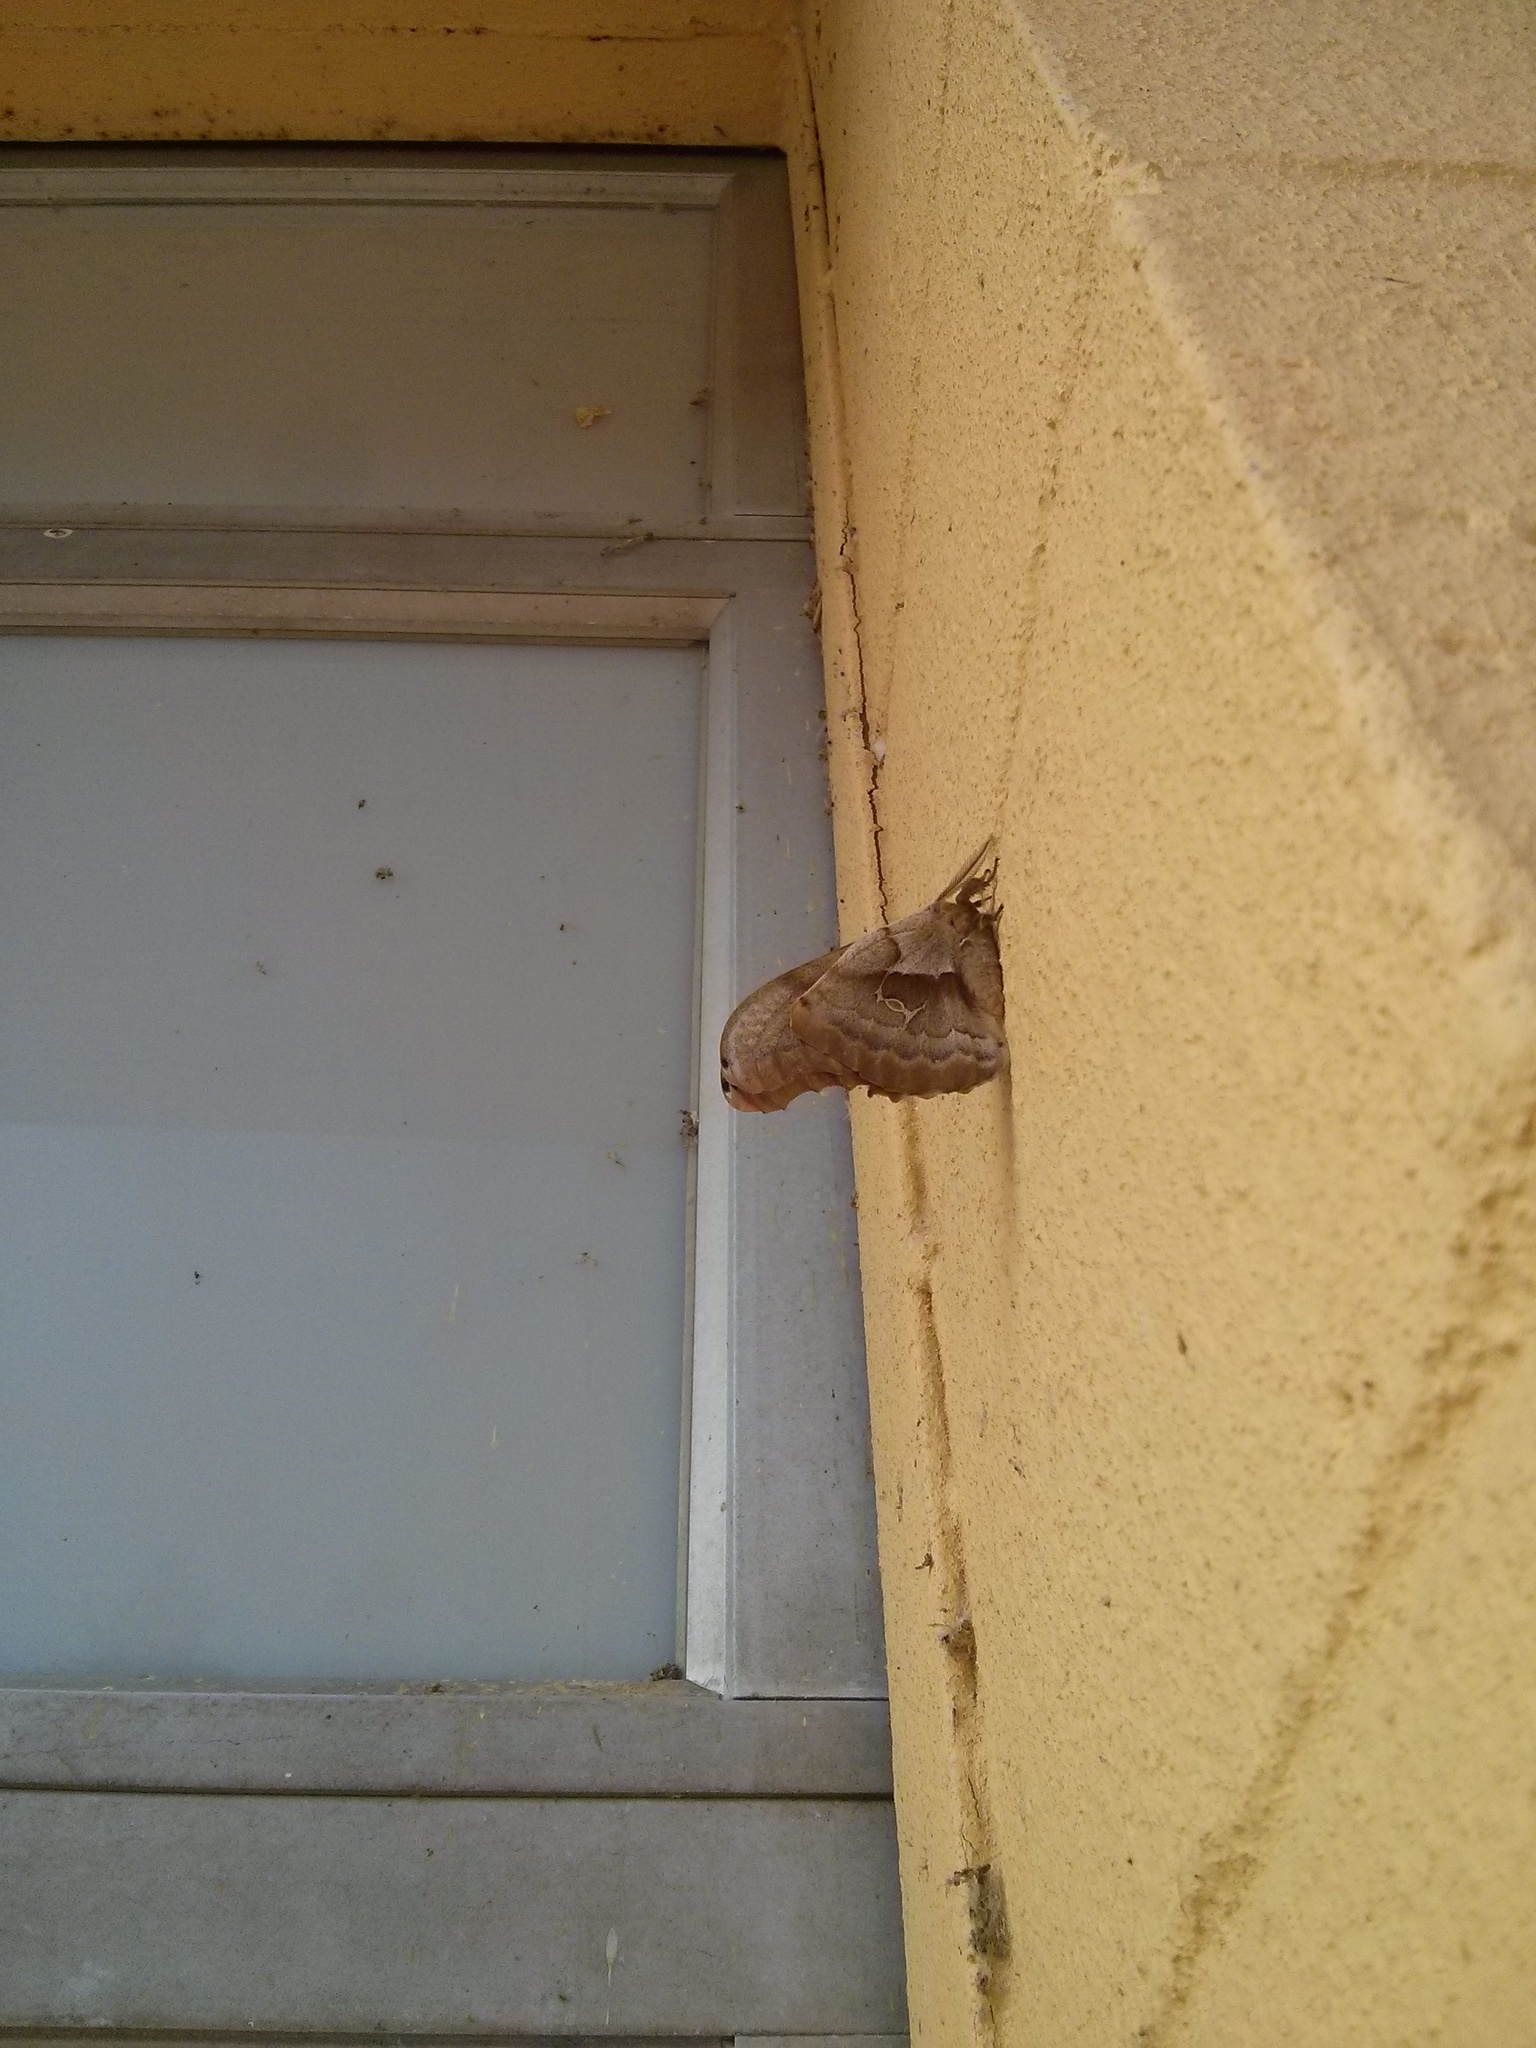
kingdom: Animalia
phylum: Arthropoda
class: Insecta
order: Lepidoptera
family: Saturniidae
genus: Antheraea
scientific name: Antheraea polyphemus
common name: Polyphemus moth
